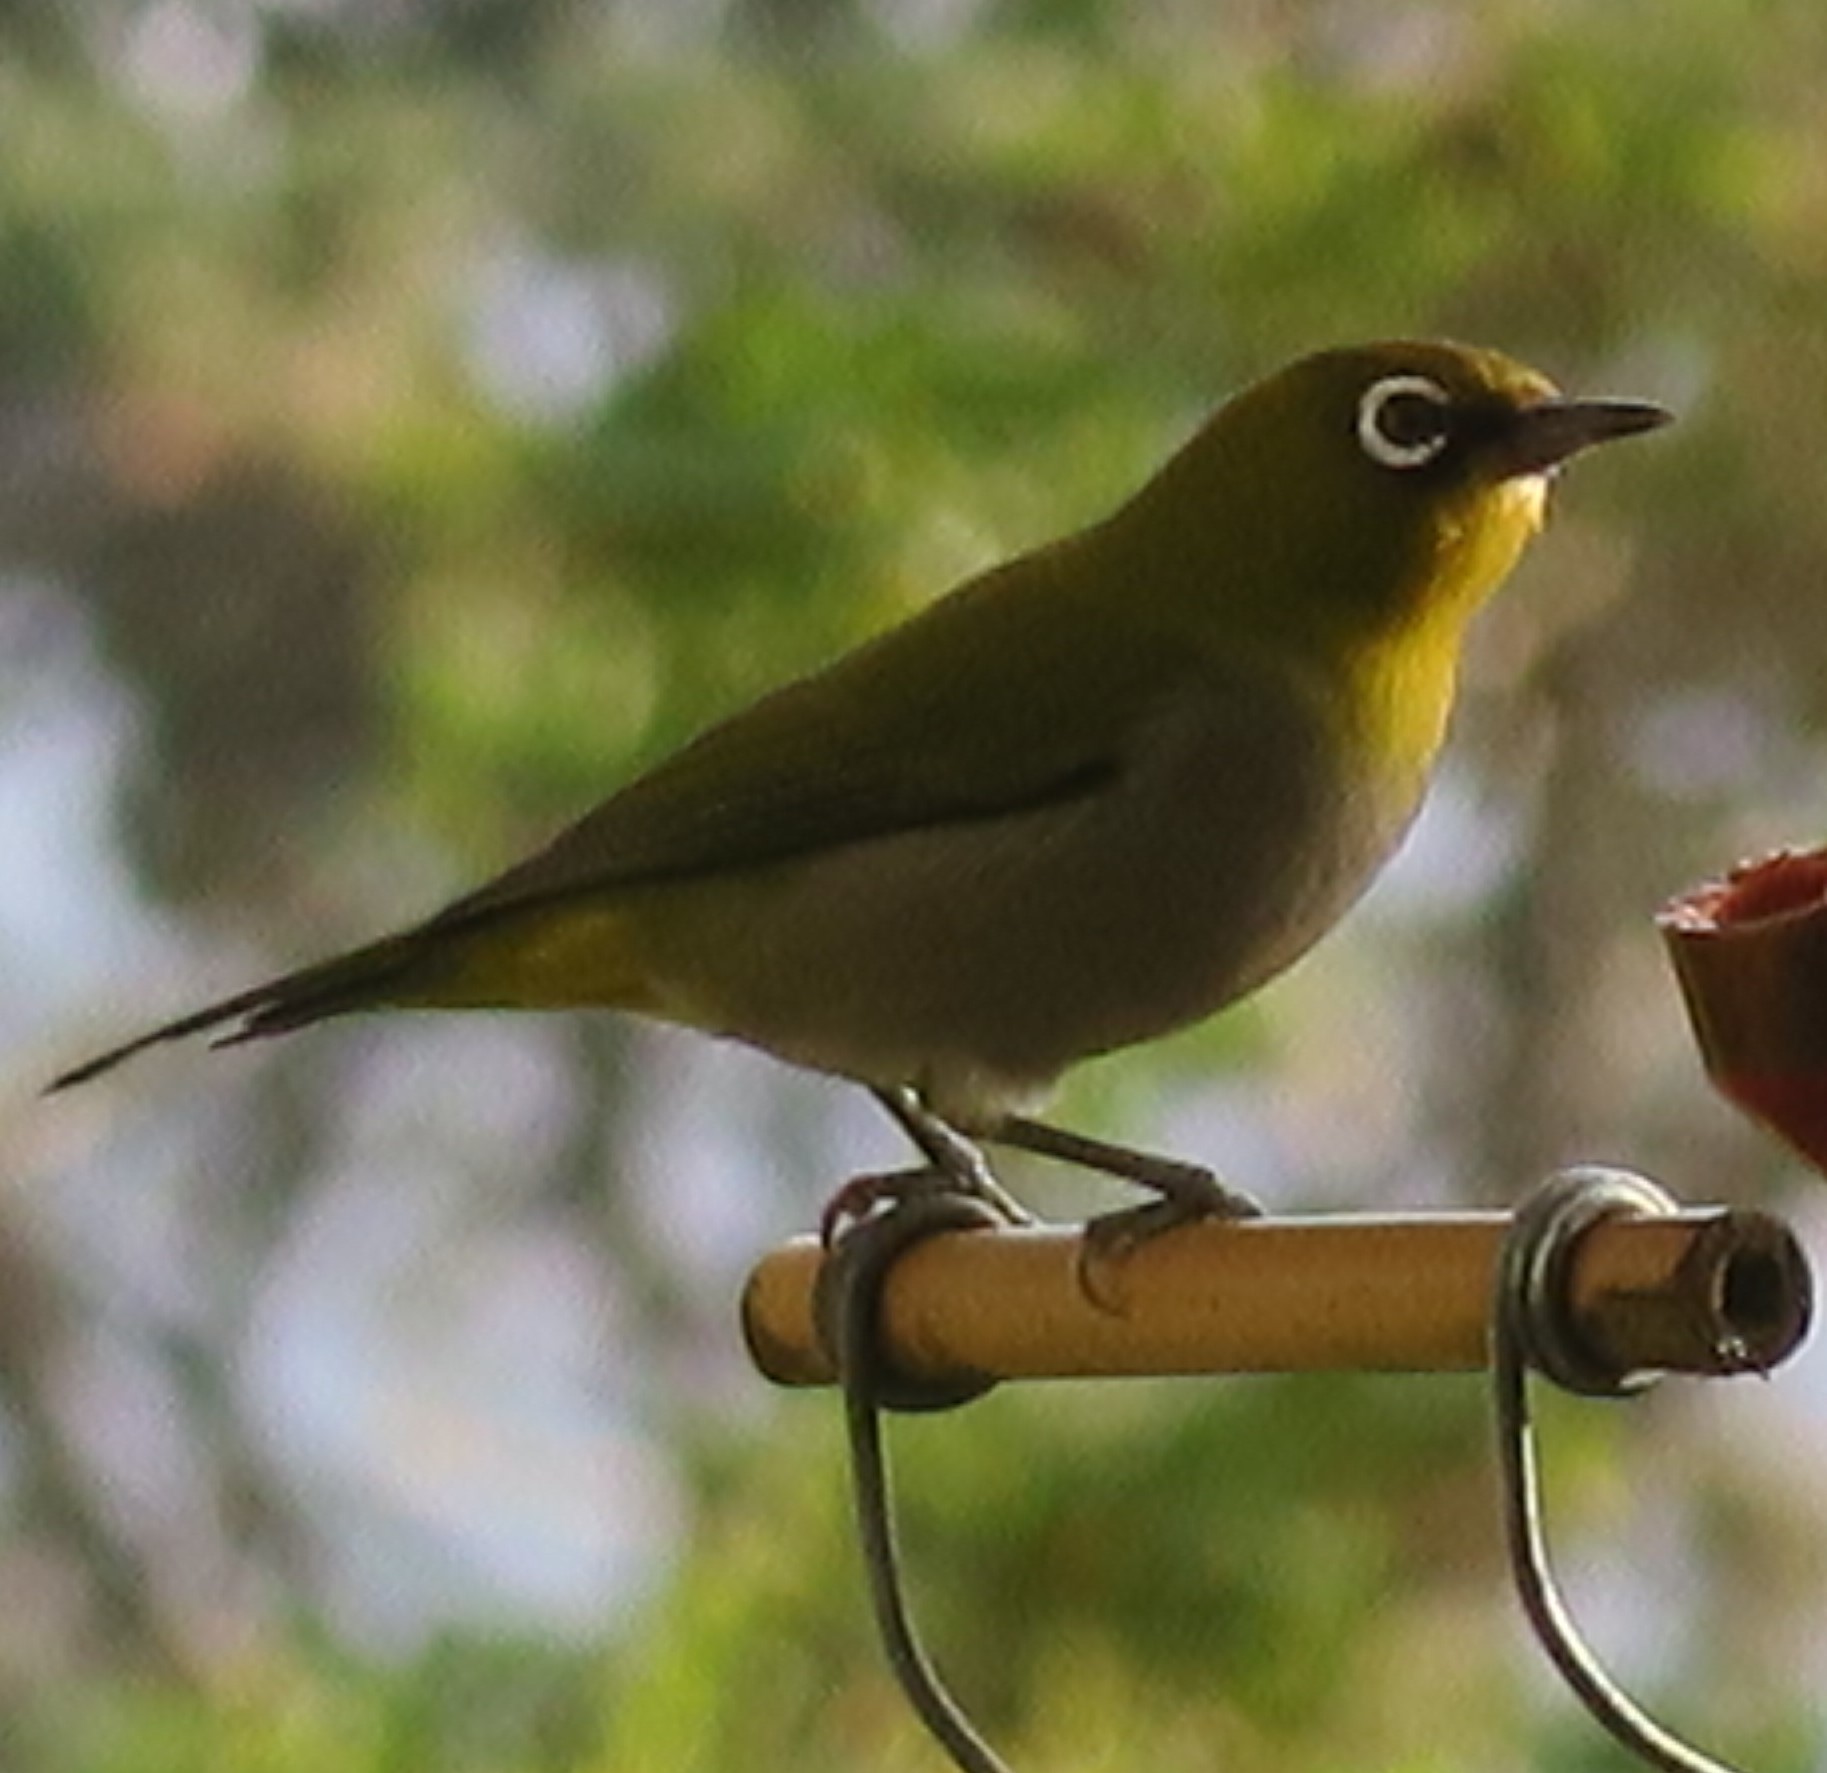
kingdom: Animalia
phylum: Chordata
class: Aves
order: Passeriformes
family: Zosteropidae
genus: Zosterops
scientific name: Zosterops virens
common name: Cape white-eye
